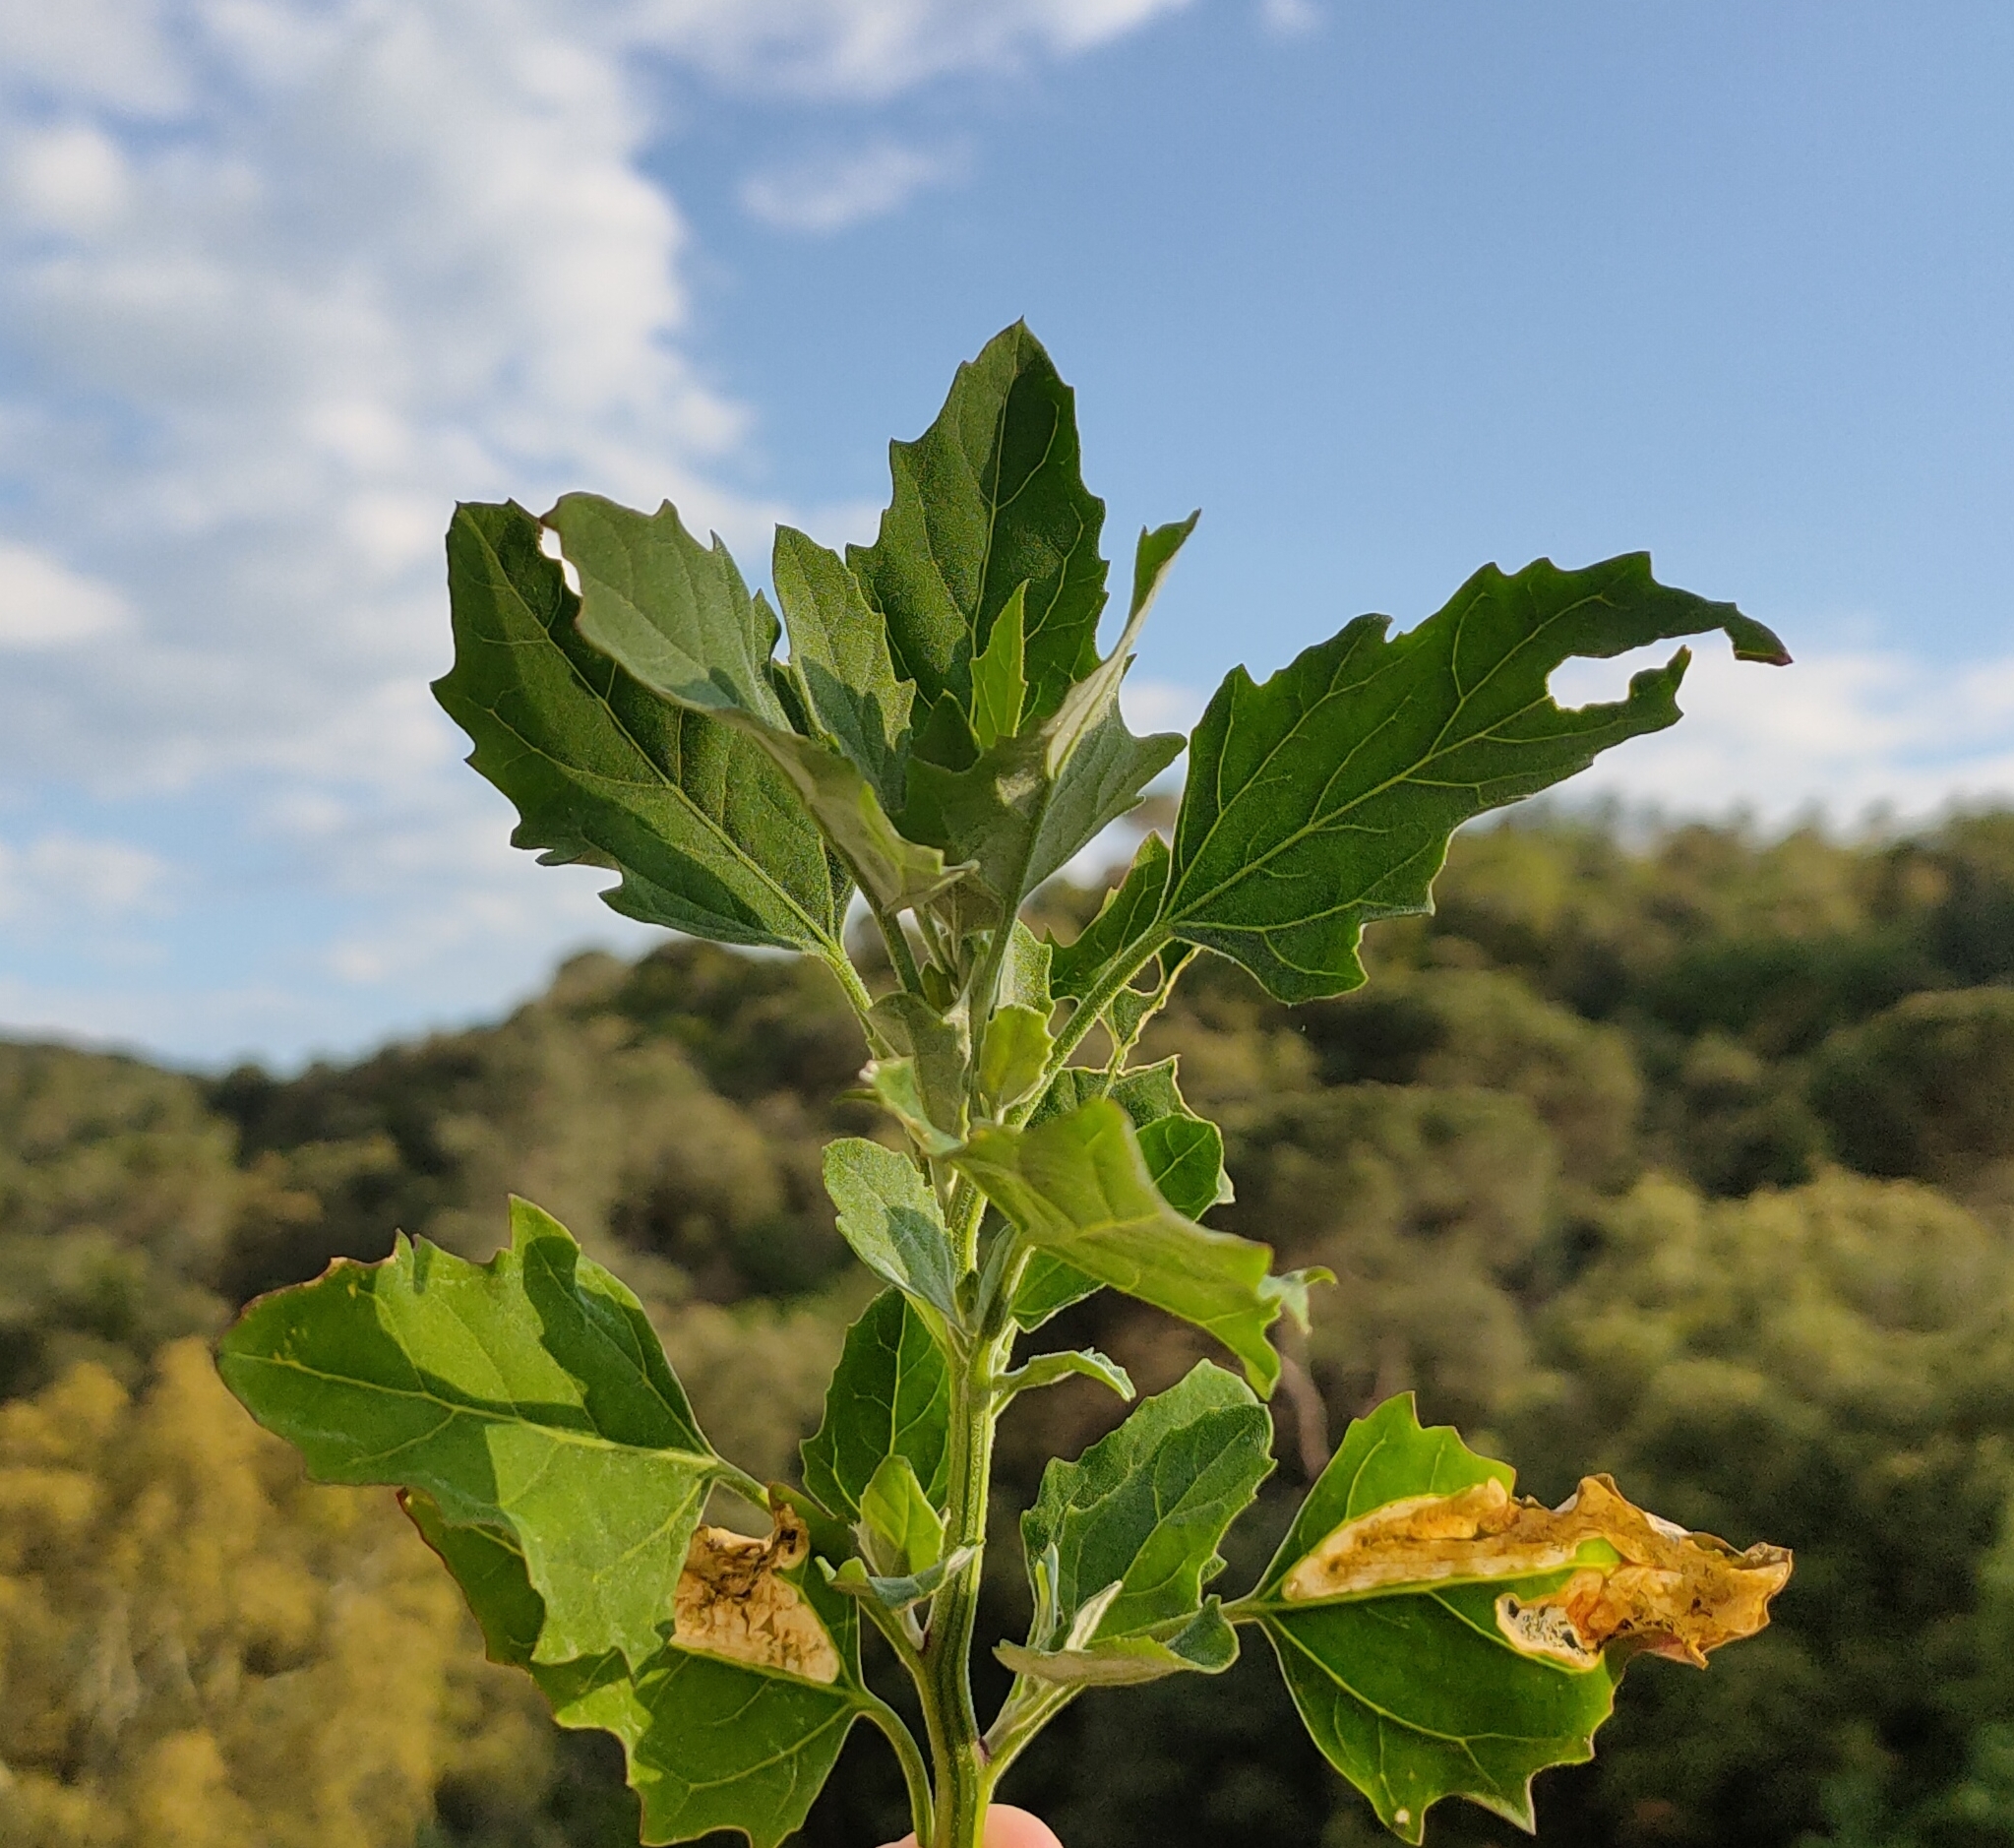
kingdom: Plantae
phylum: Tracheophyta
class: Magnoliopsida
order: Caryophyllales
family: Amaranthaceae
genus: Chenopodium
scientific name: Chenopodium album
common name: Fat-hen
